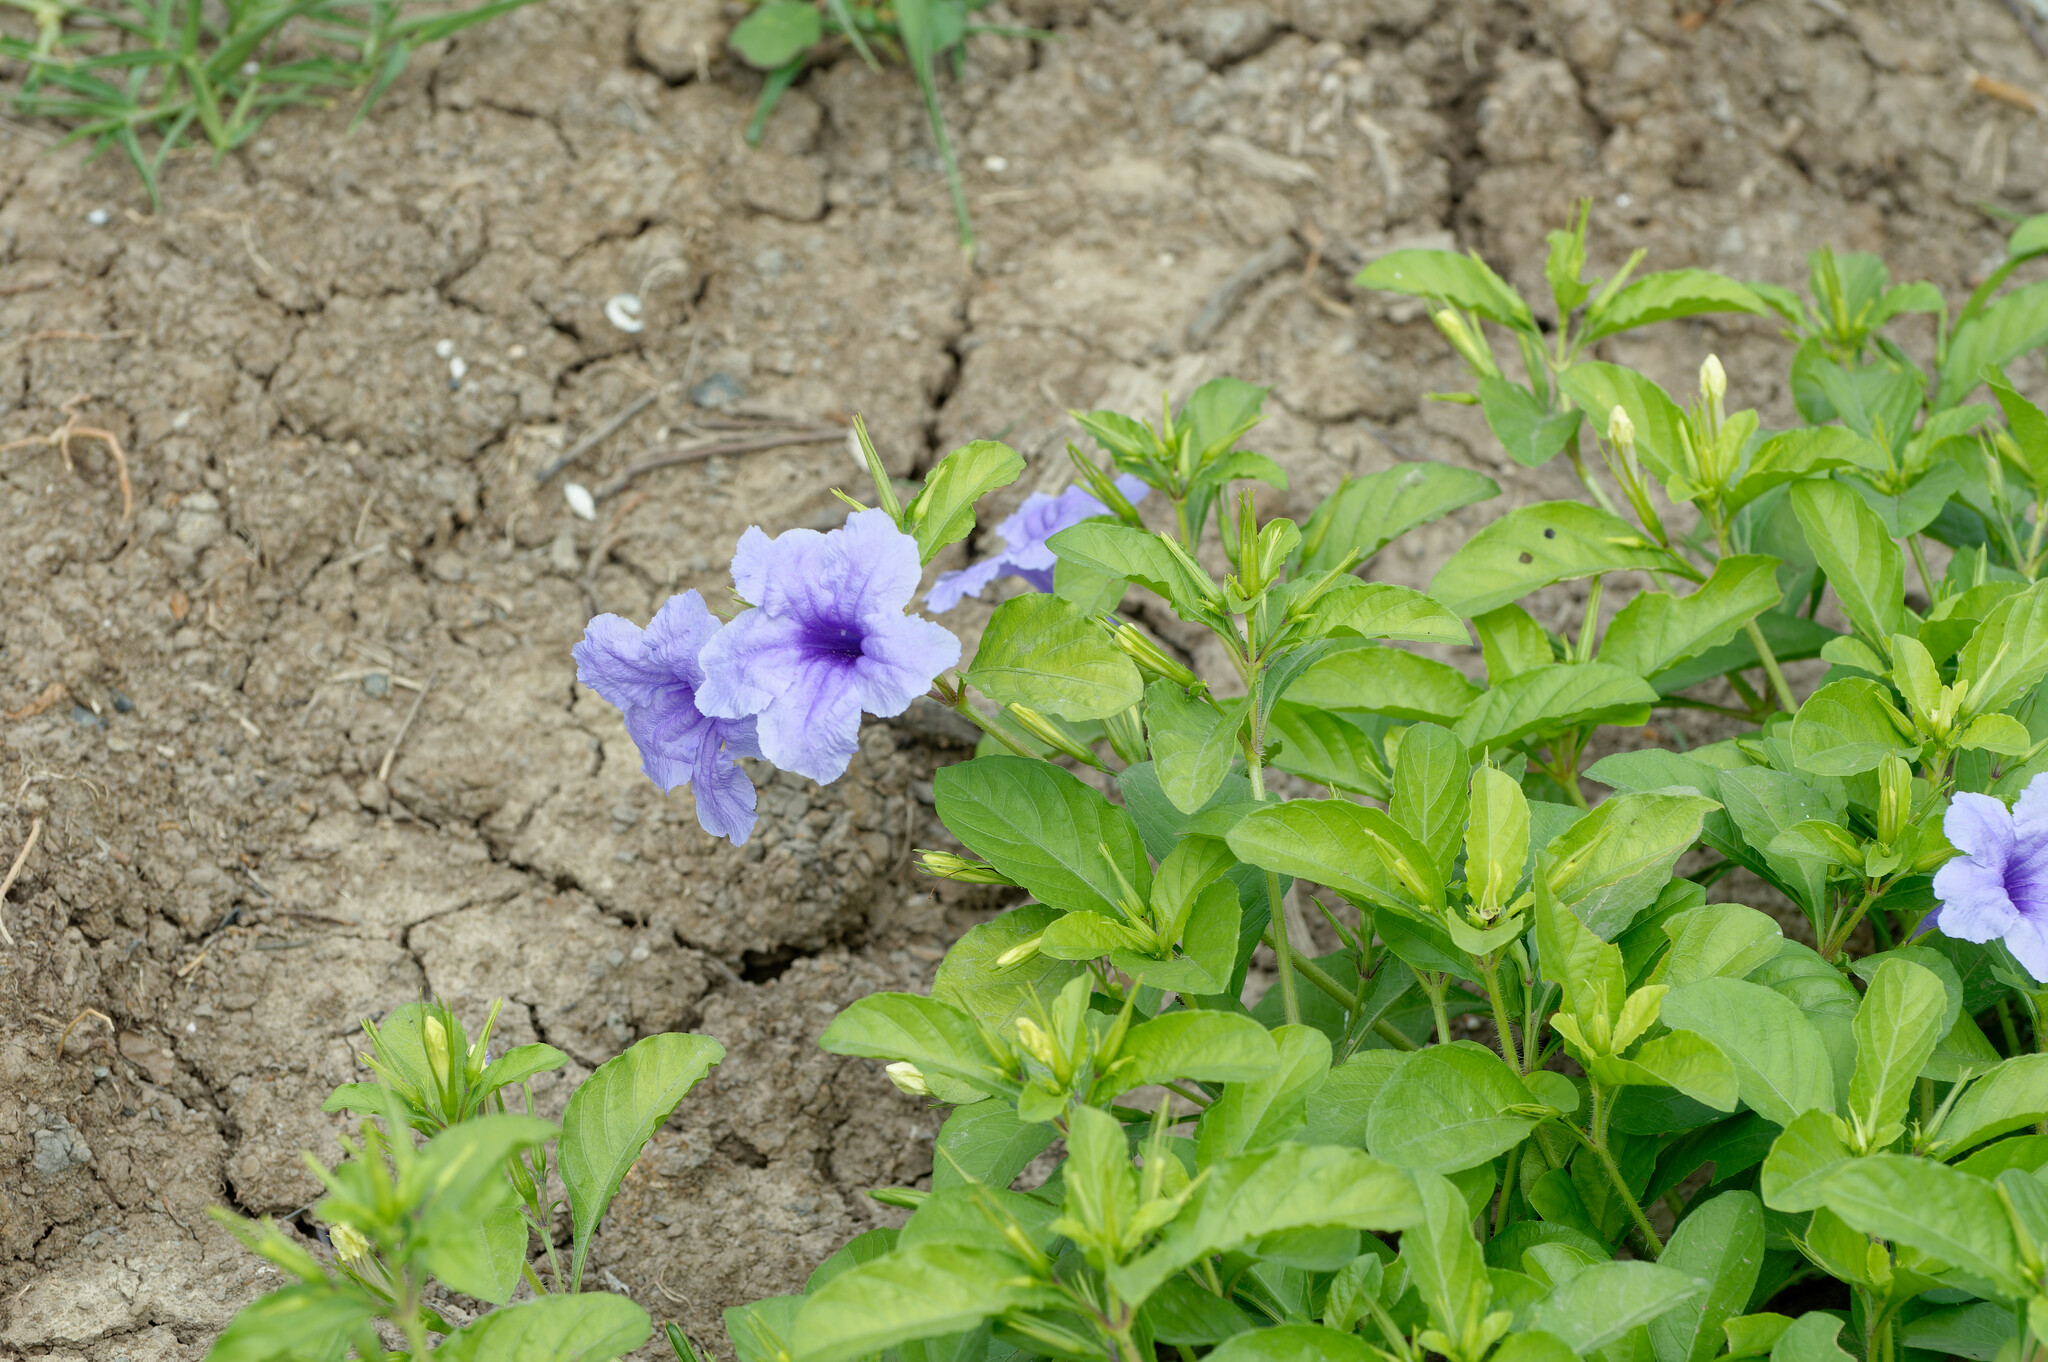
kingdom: Plantae
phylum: Tracheophyta
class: Magnoliopsida
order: Lamiales
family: Acanthaceae
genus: Ruellia
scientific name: Ruellia tuberosa
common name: Devil's bit
